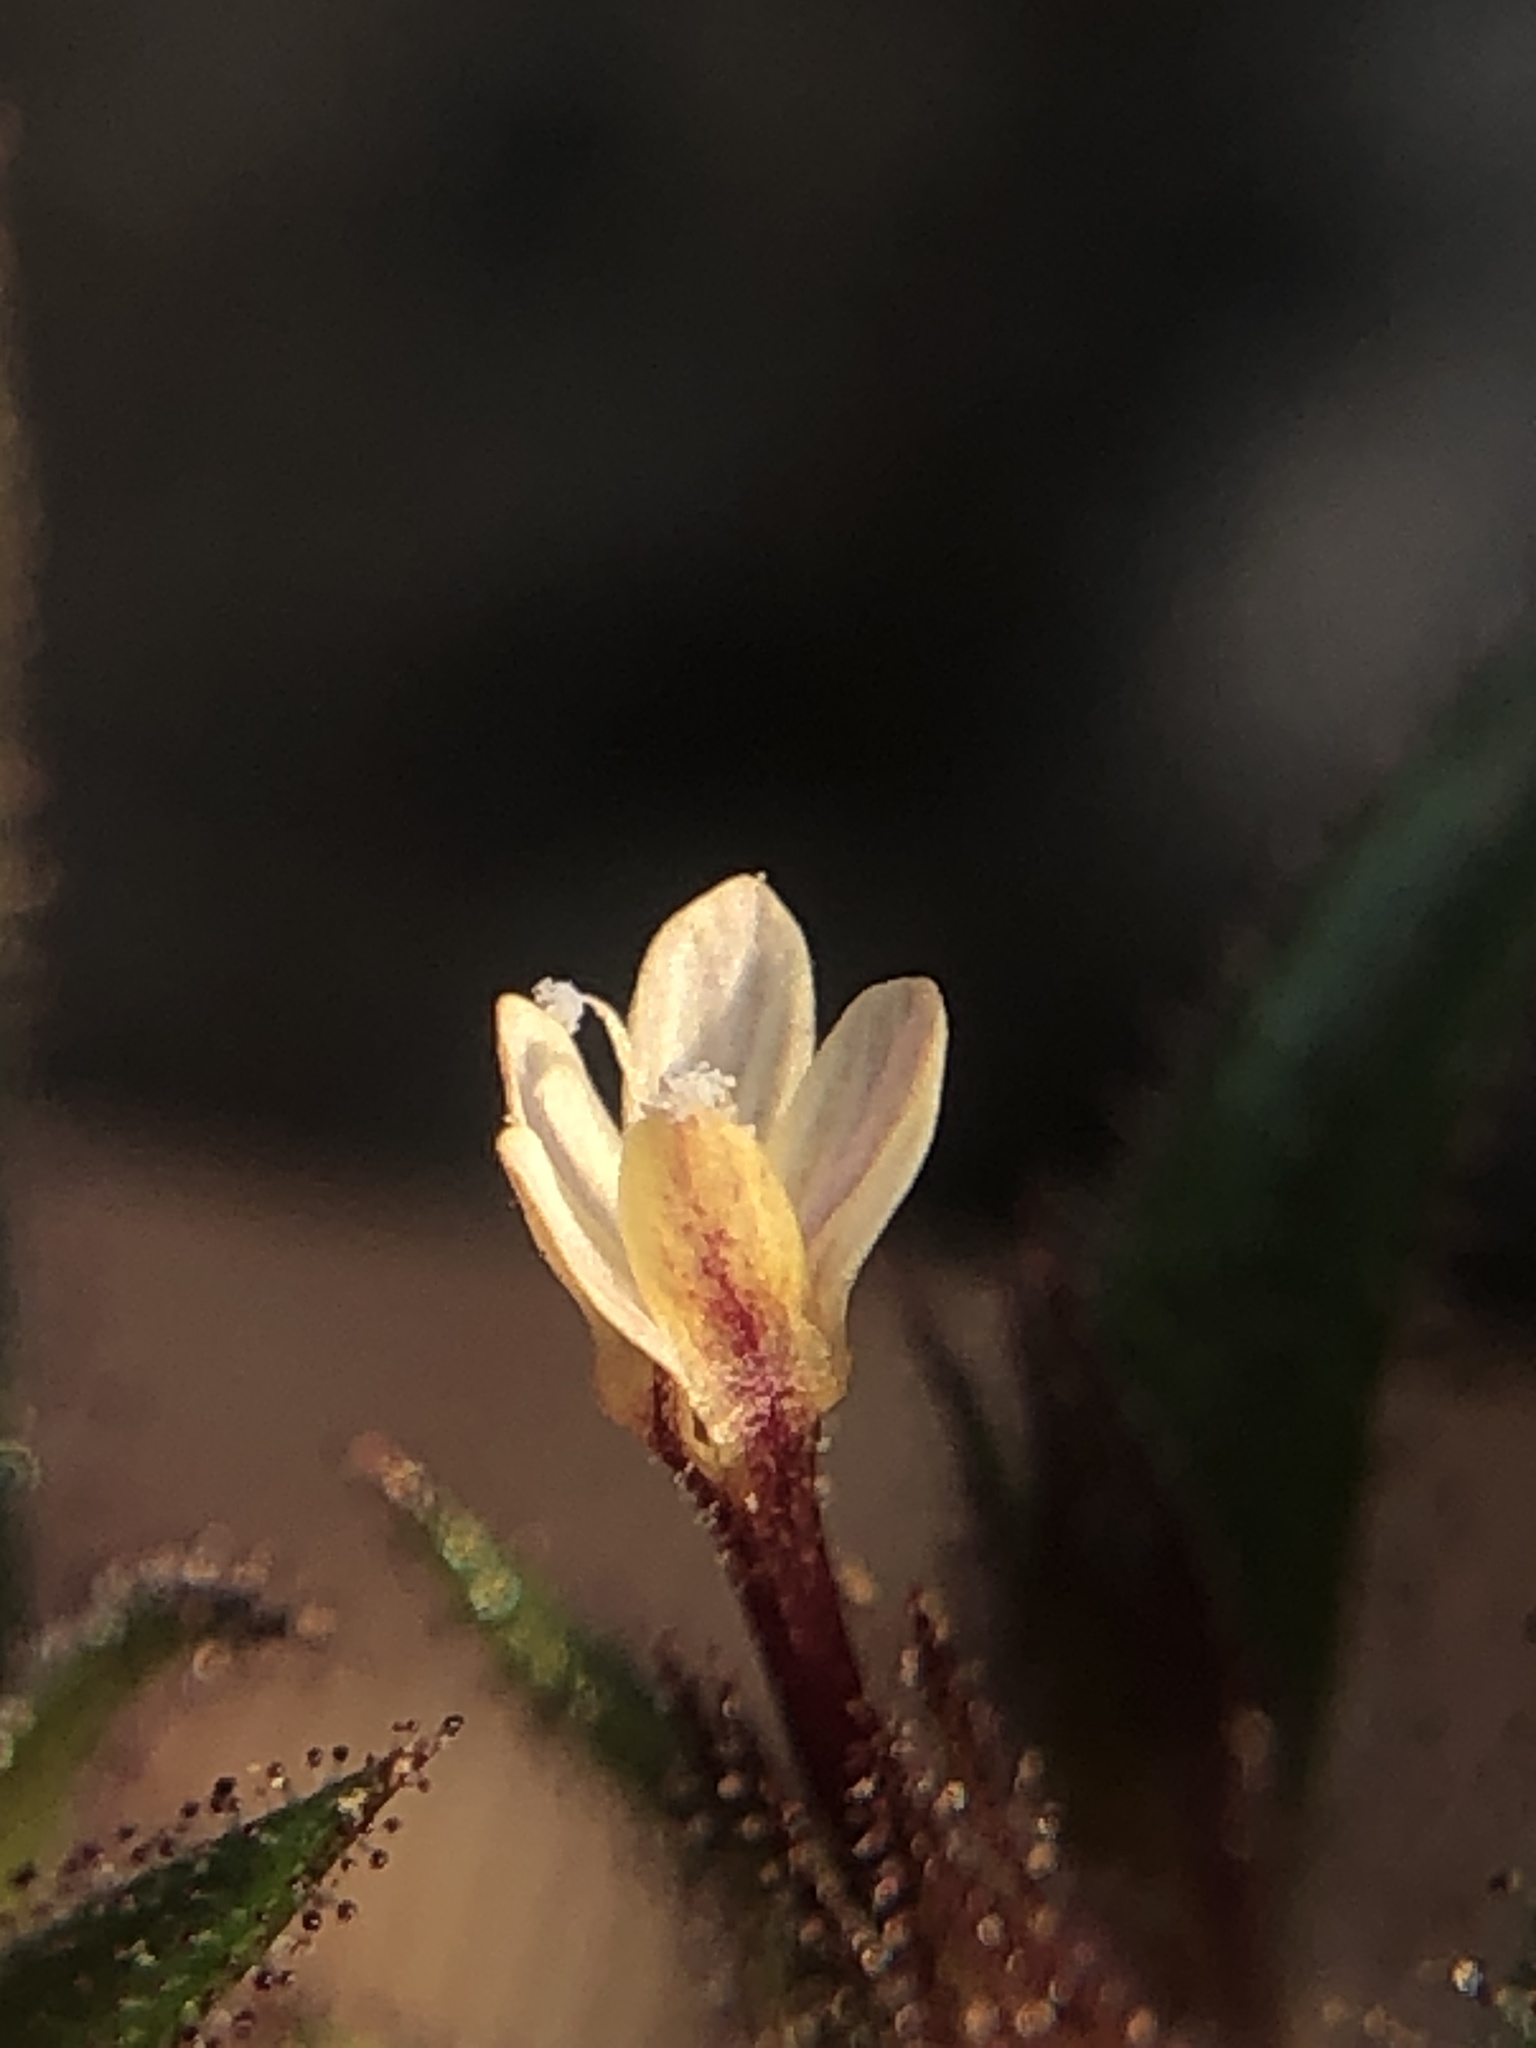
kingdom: Plantae
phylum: Tracheophyta
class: Magnoliopsida
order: Ericales
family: Polemoniaceae
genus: Collomia
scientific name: Collomia tinctoria
